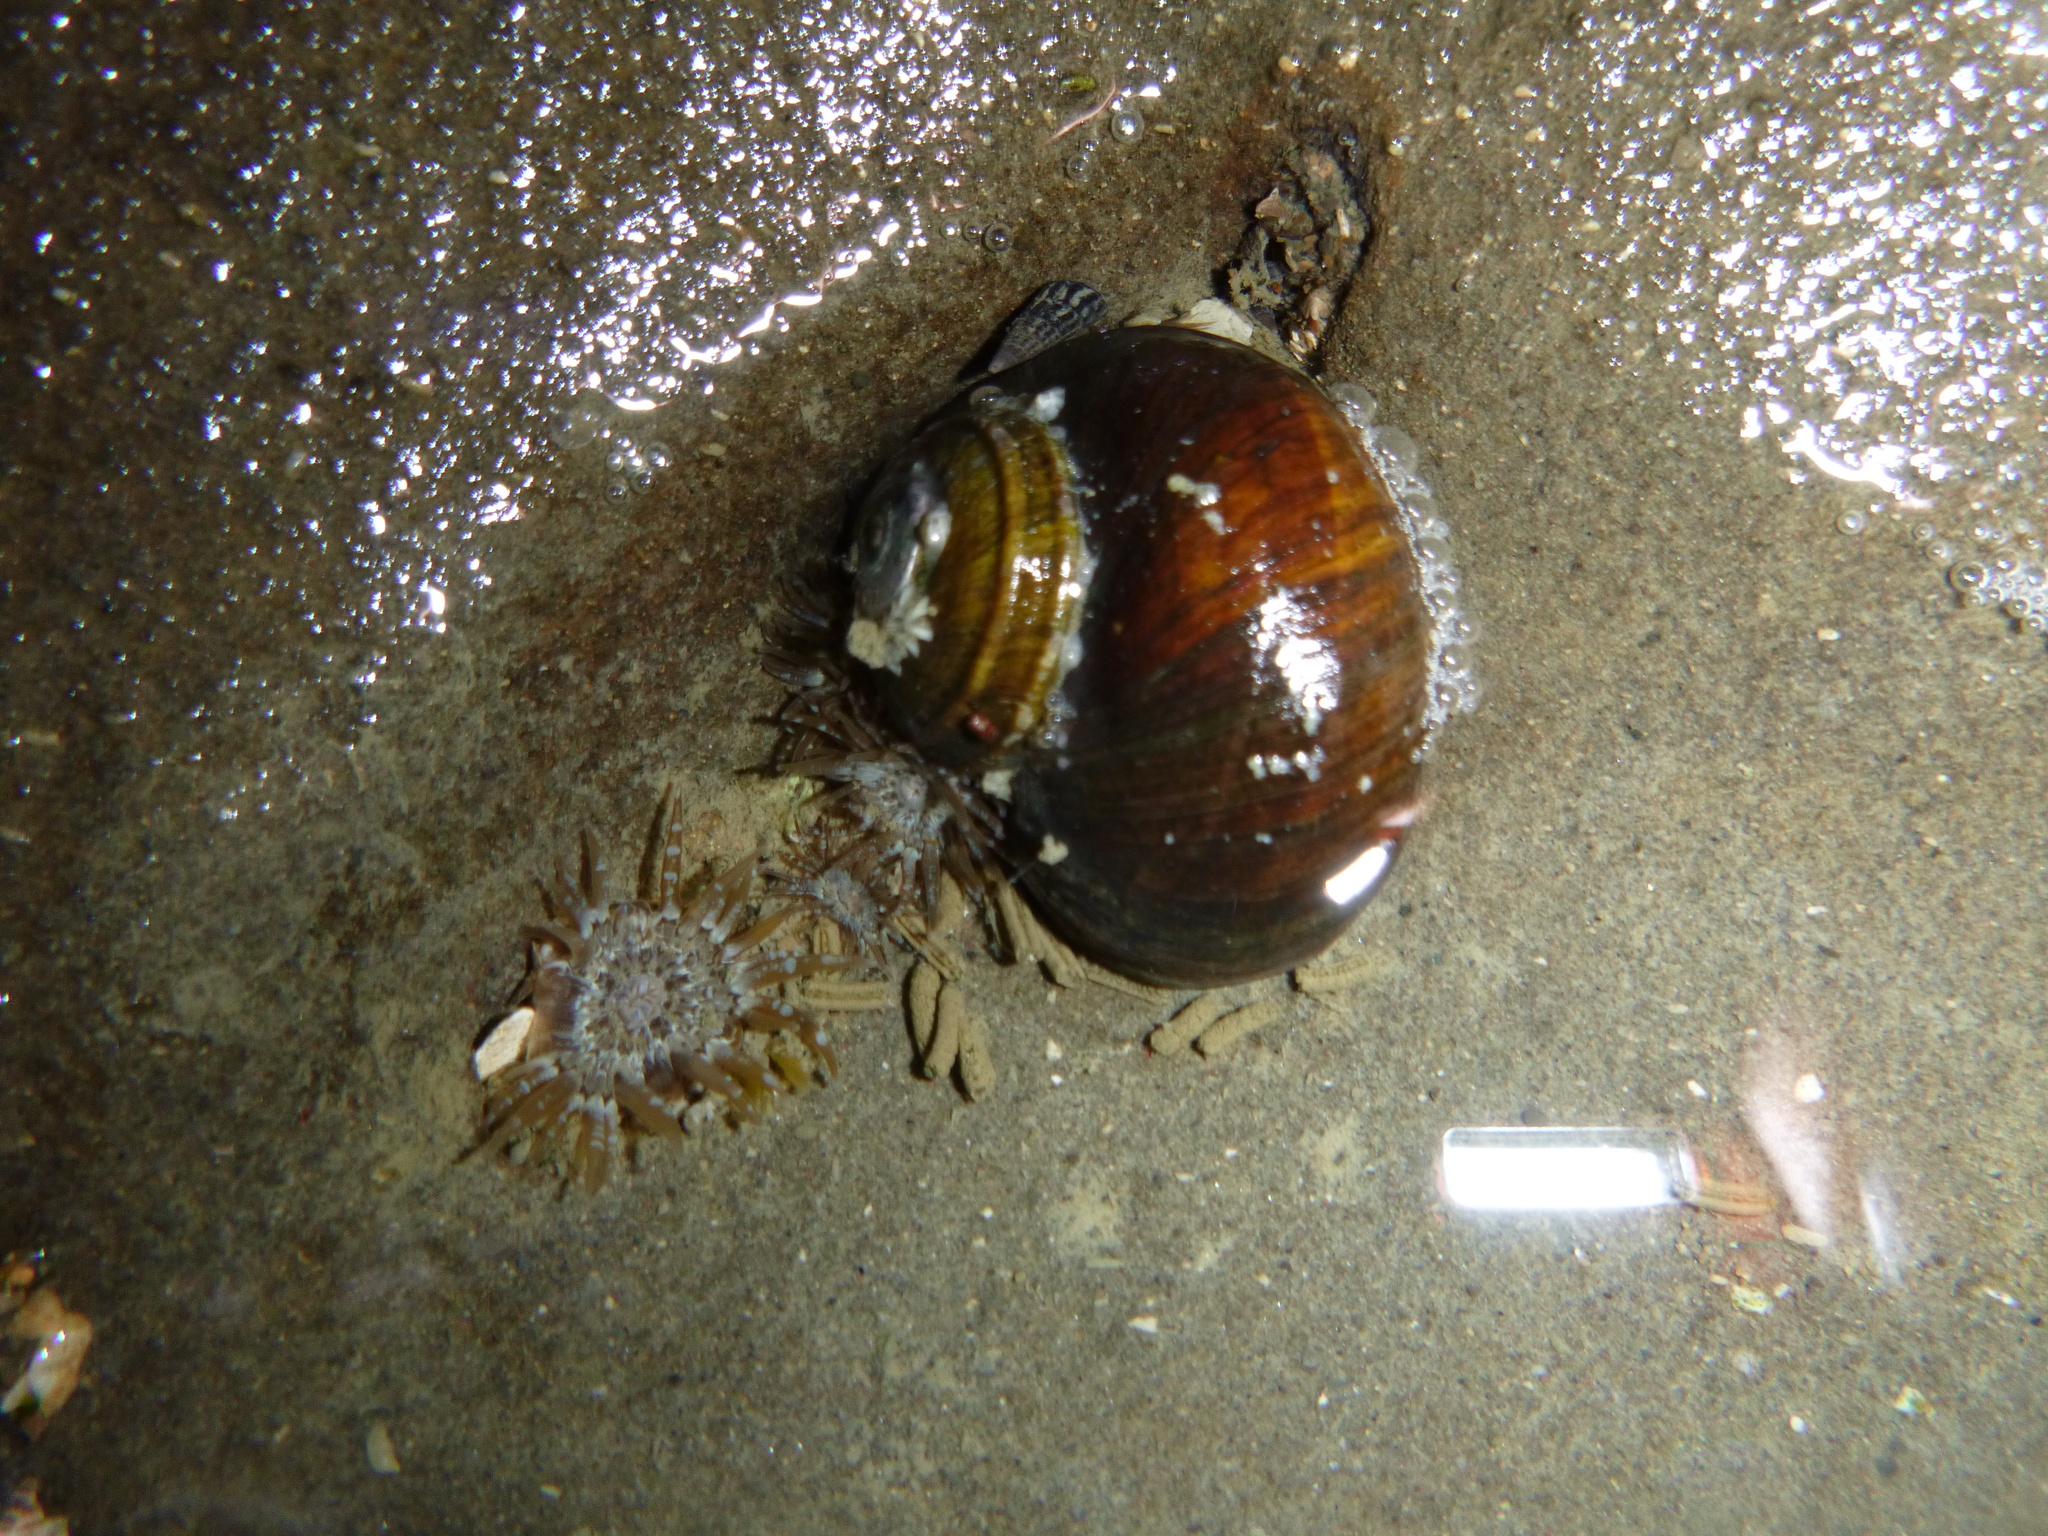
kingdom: Animalia
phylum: Mollusca
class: Gastropoda
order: Trochida
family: Turbinidae
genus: Lunella
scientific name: Lunella smaragda
